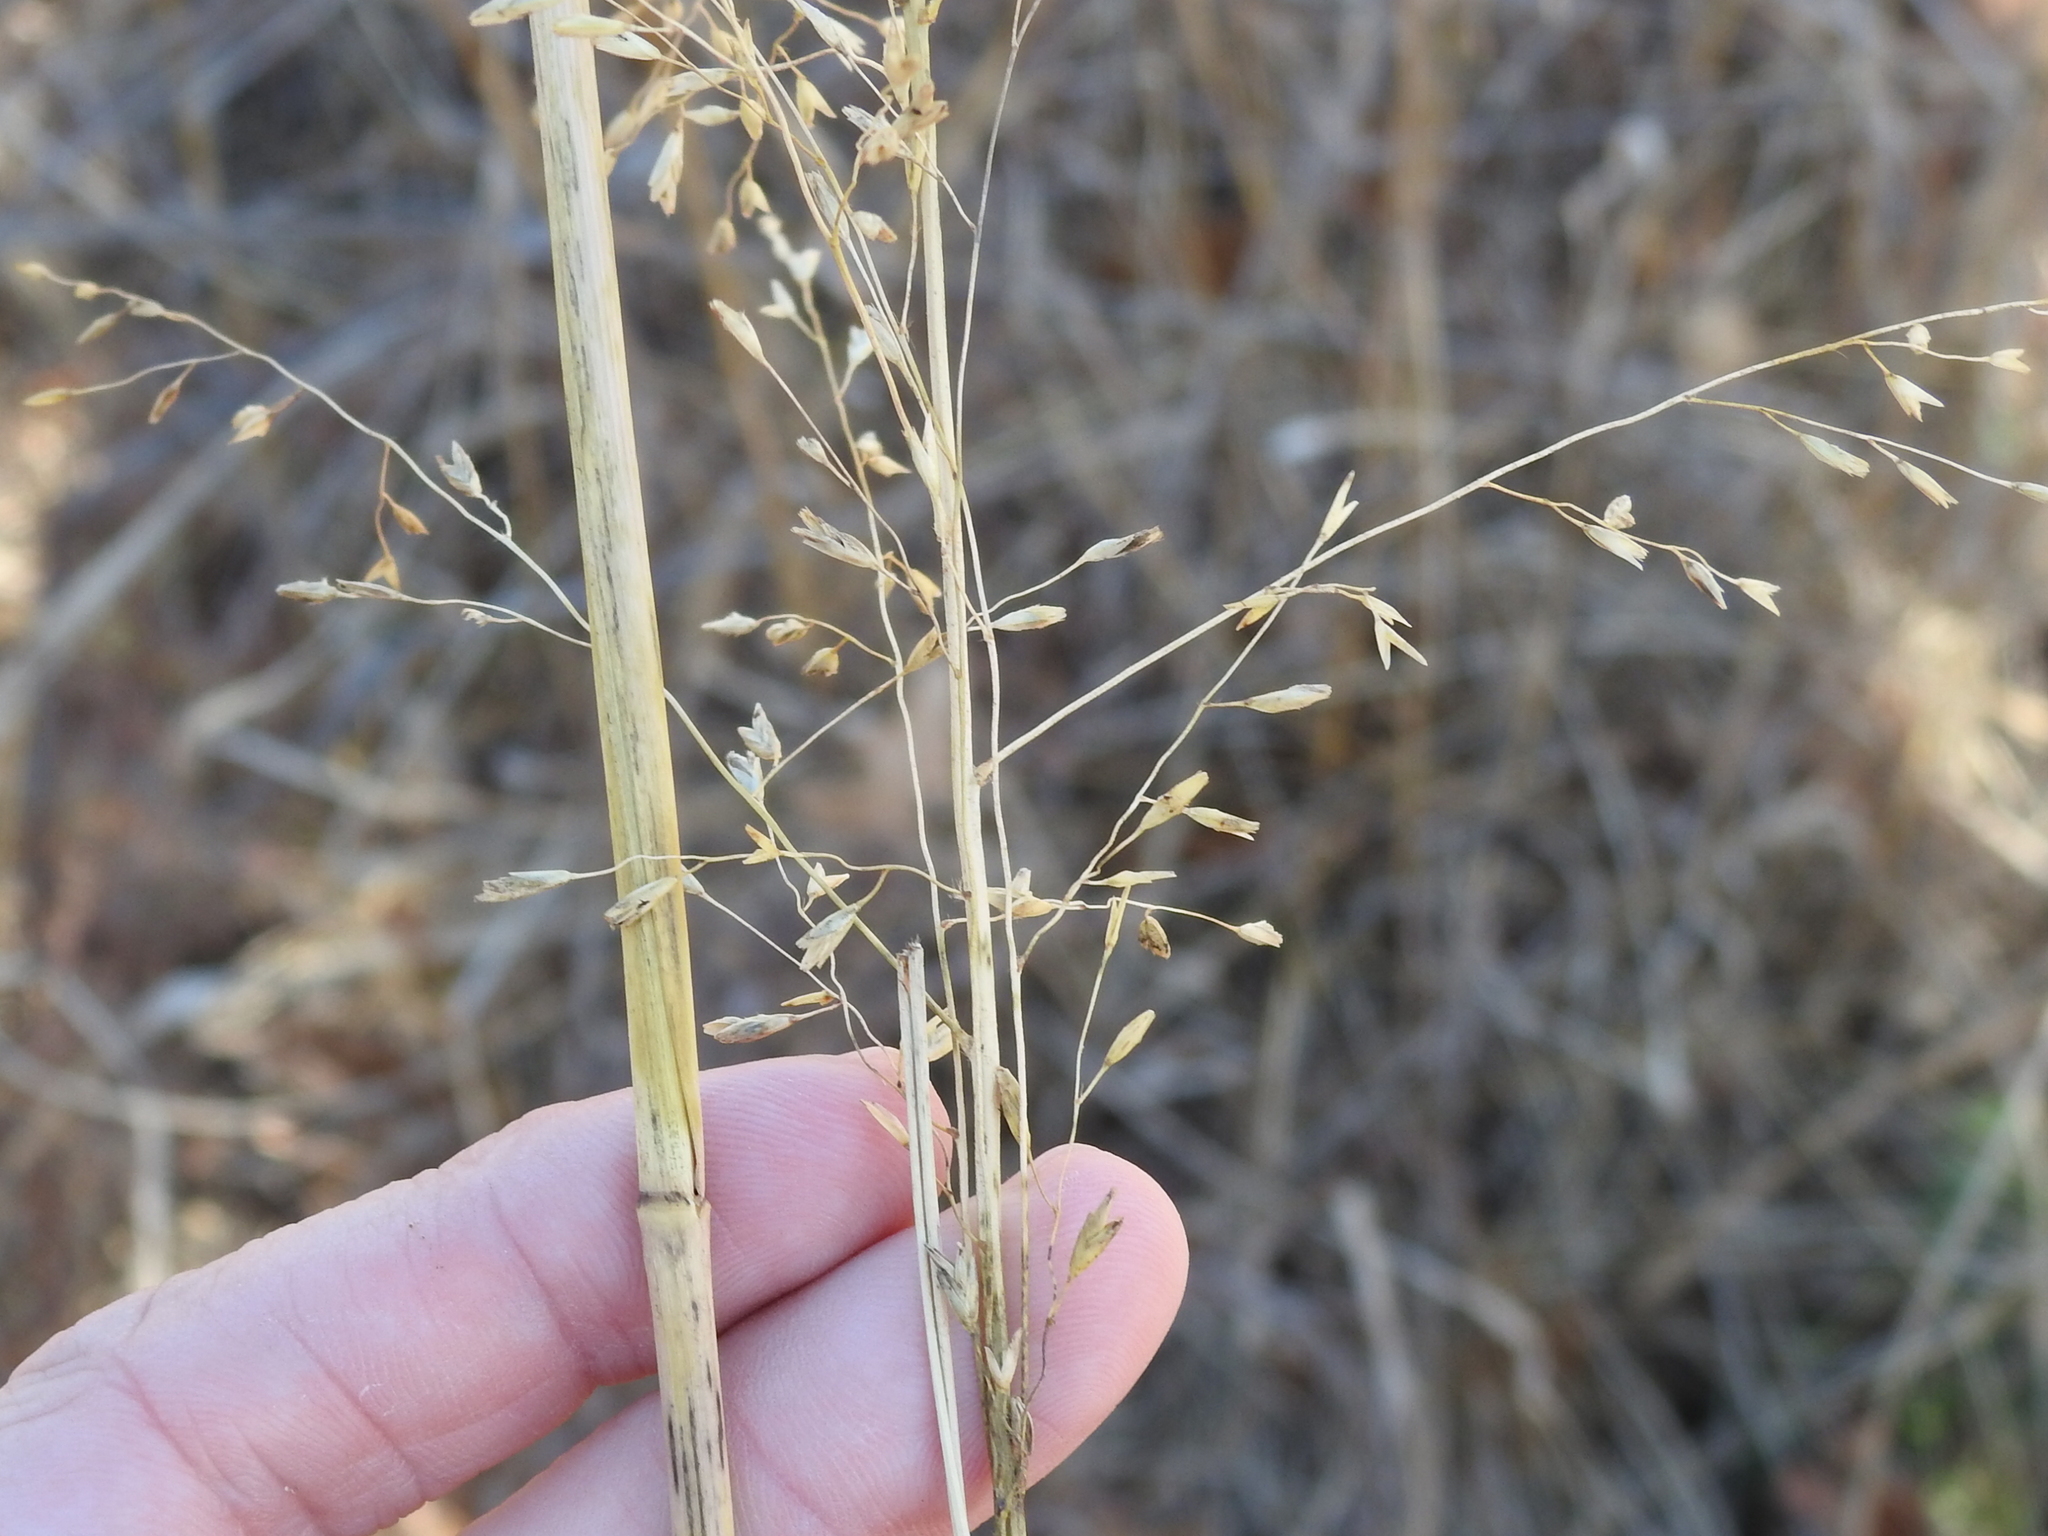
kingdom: Plantae
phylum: Tracheophyta
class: Liliopsida
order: Poales
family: Poaceae
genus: Tridens
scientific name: Tridens chapmanii
